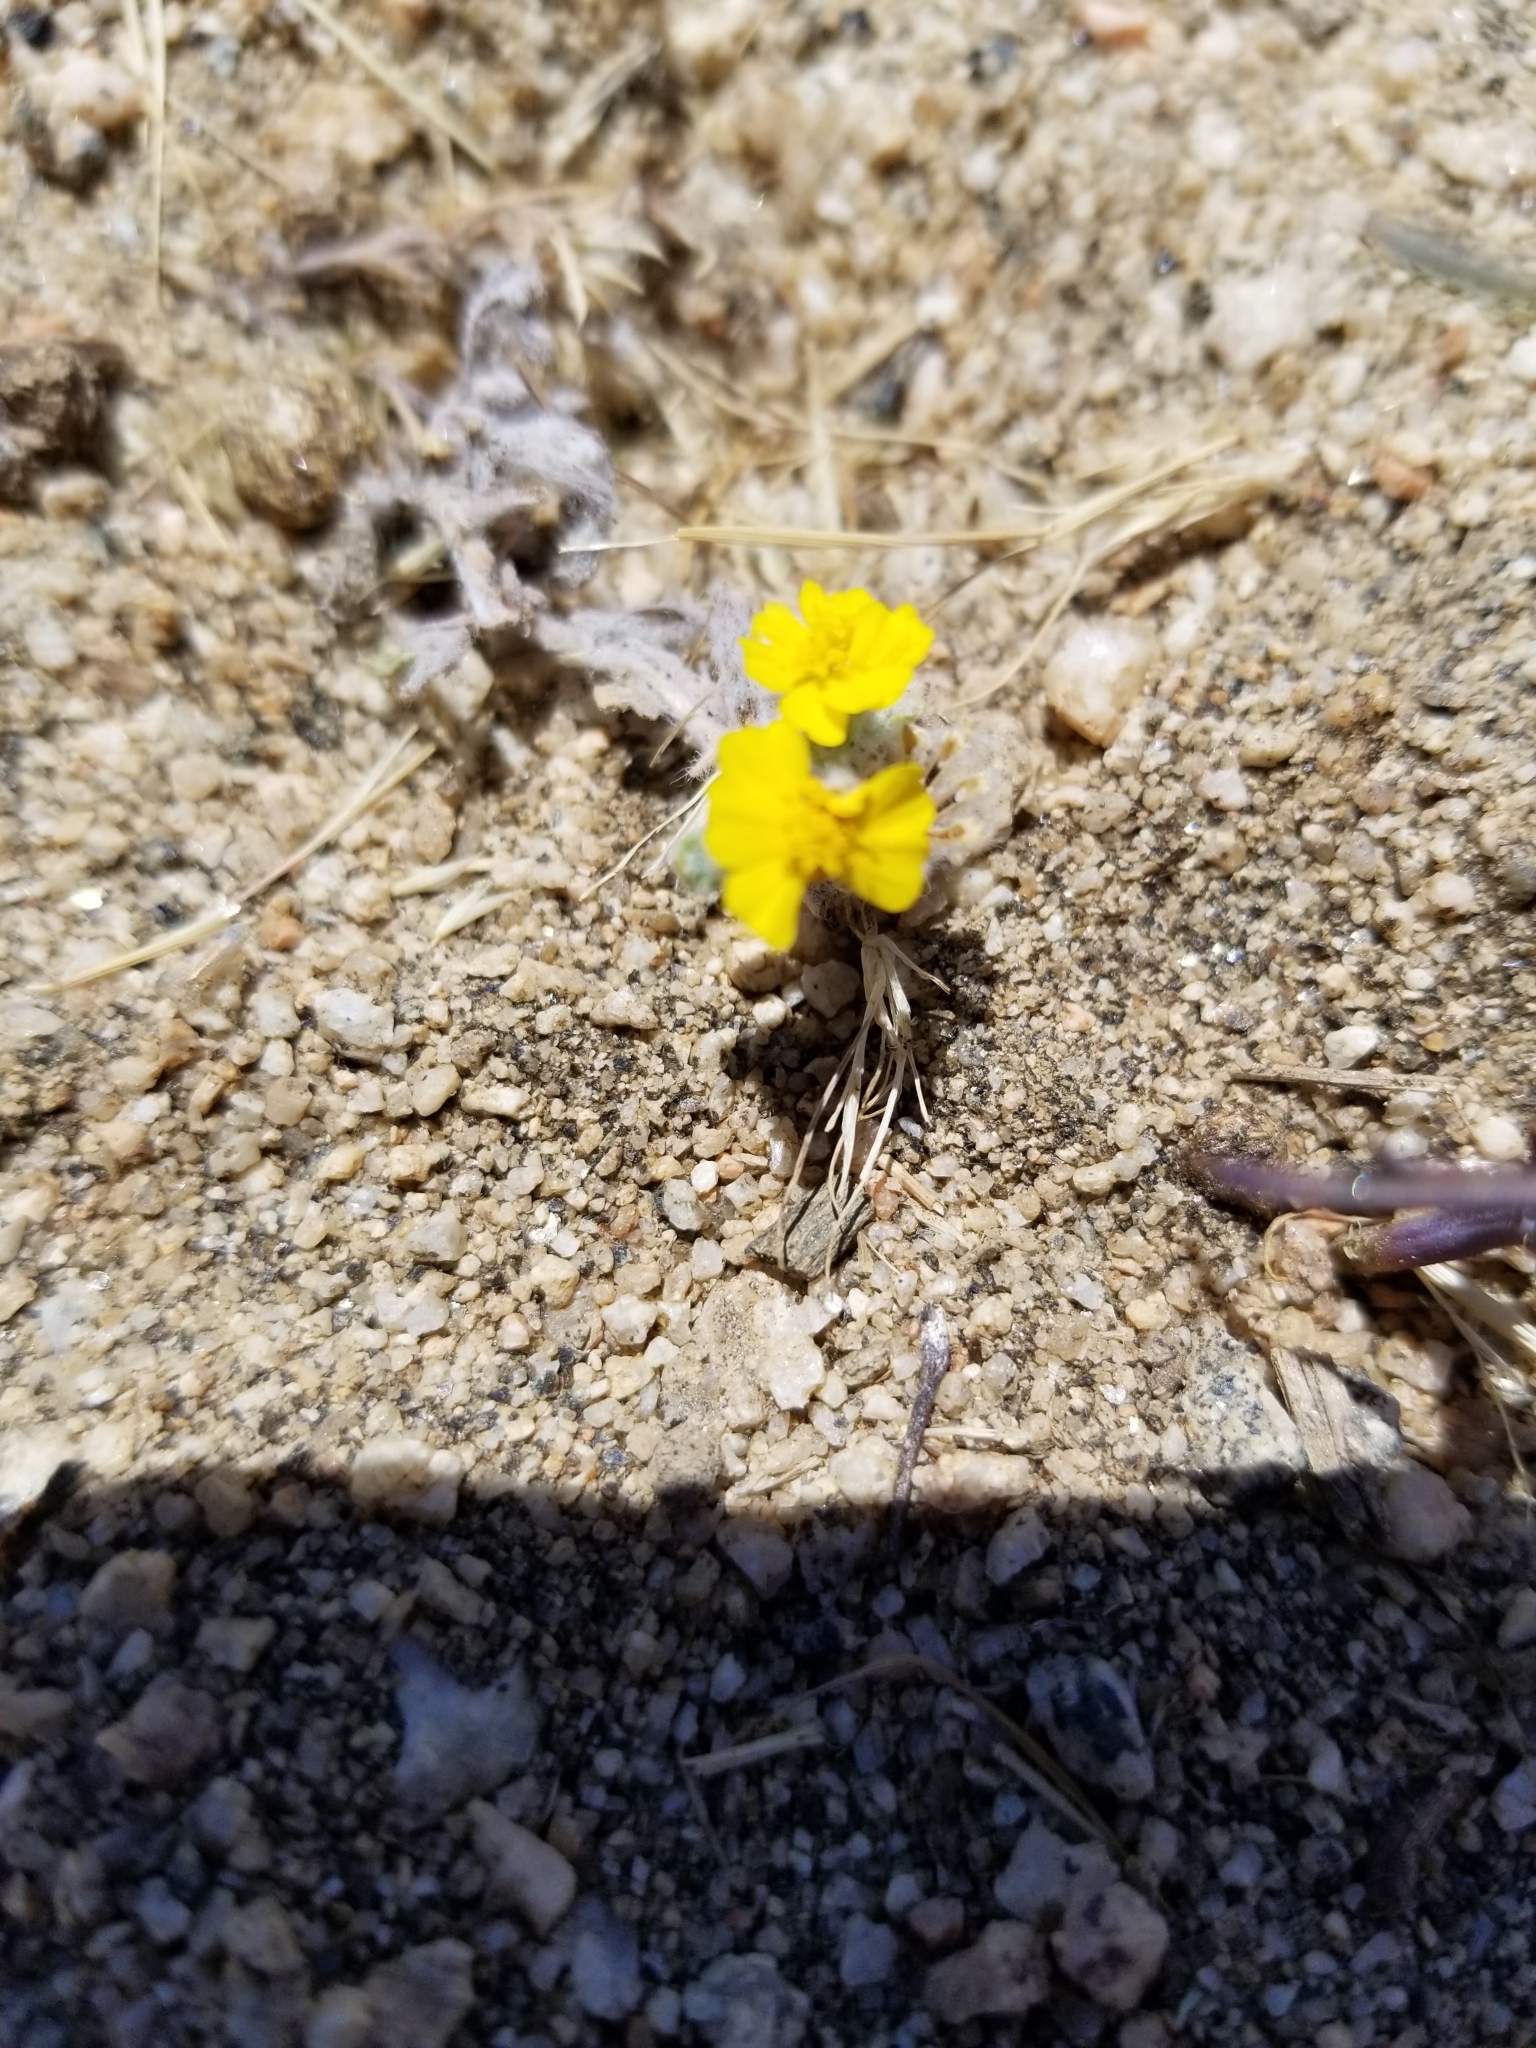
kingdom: Plantae
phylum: Tracheophyta
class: Magnoliopsida
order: Asterales
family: Asteraceae
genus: Eriophyllum
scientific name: Eriophyllum wallacei
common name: Wallace's woolly daisy
